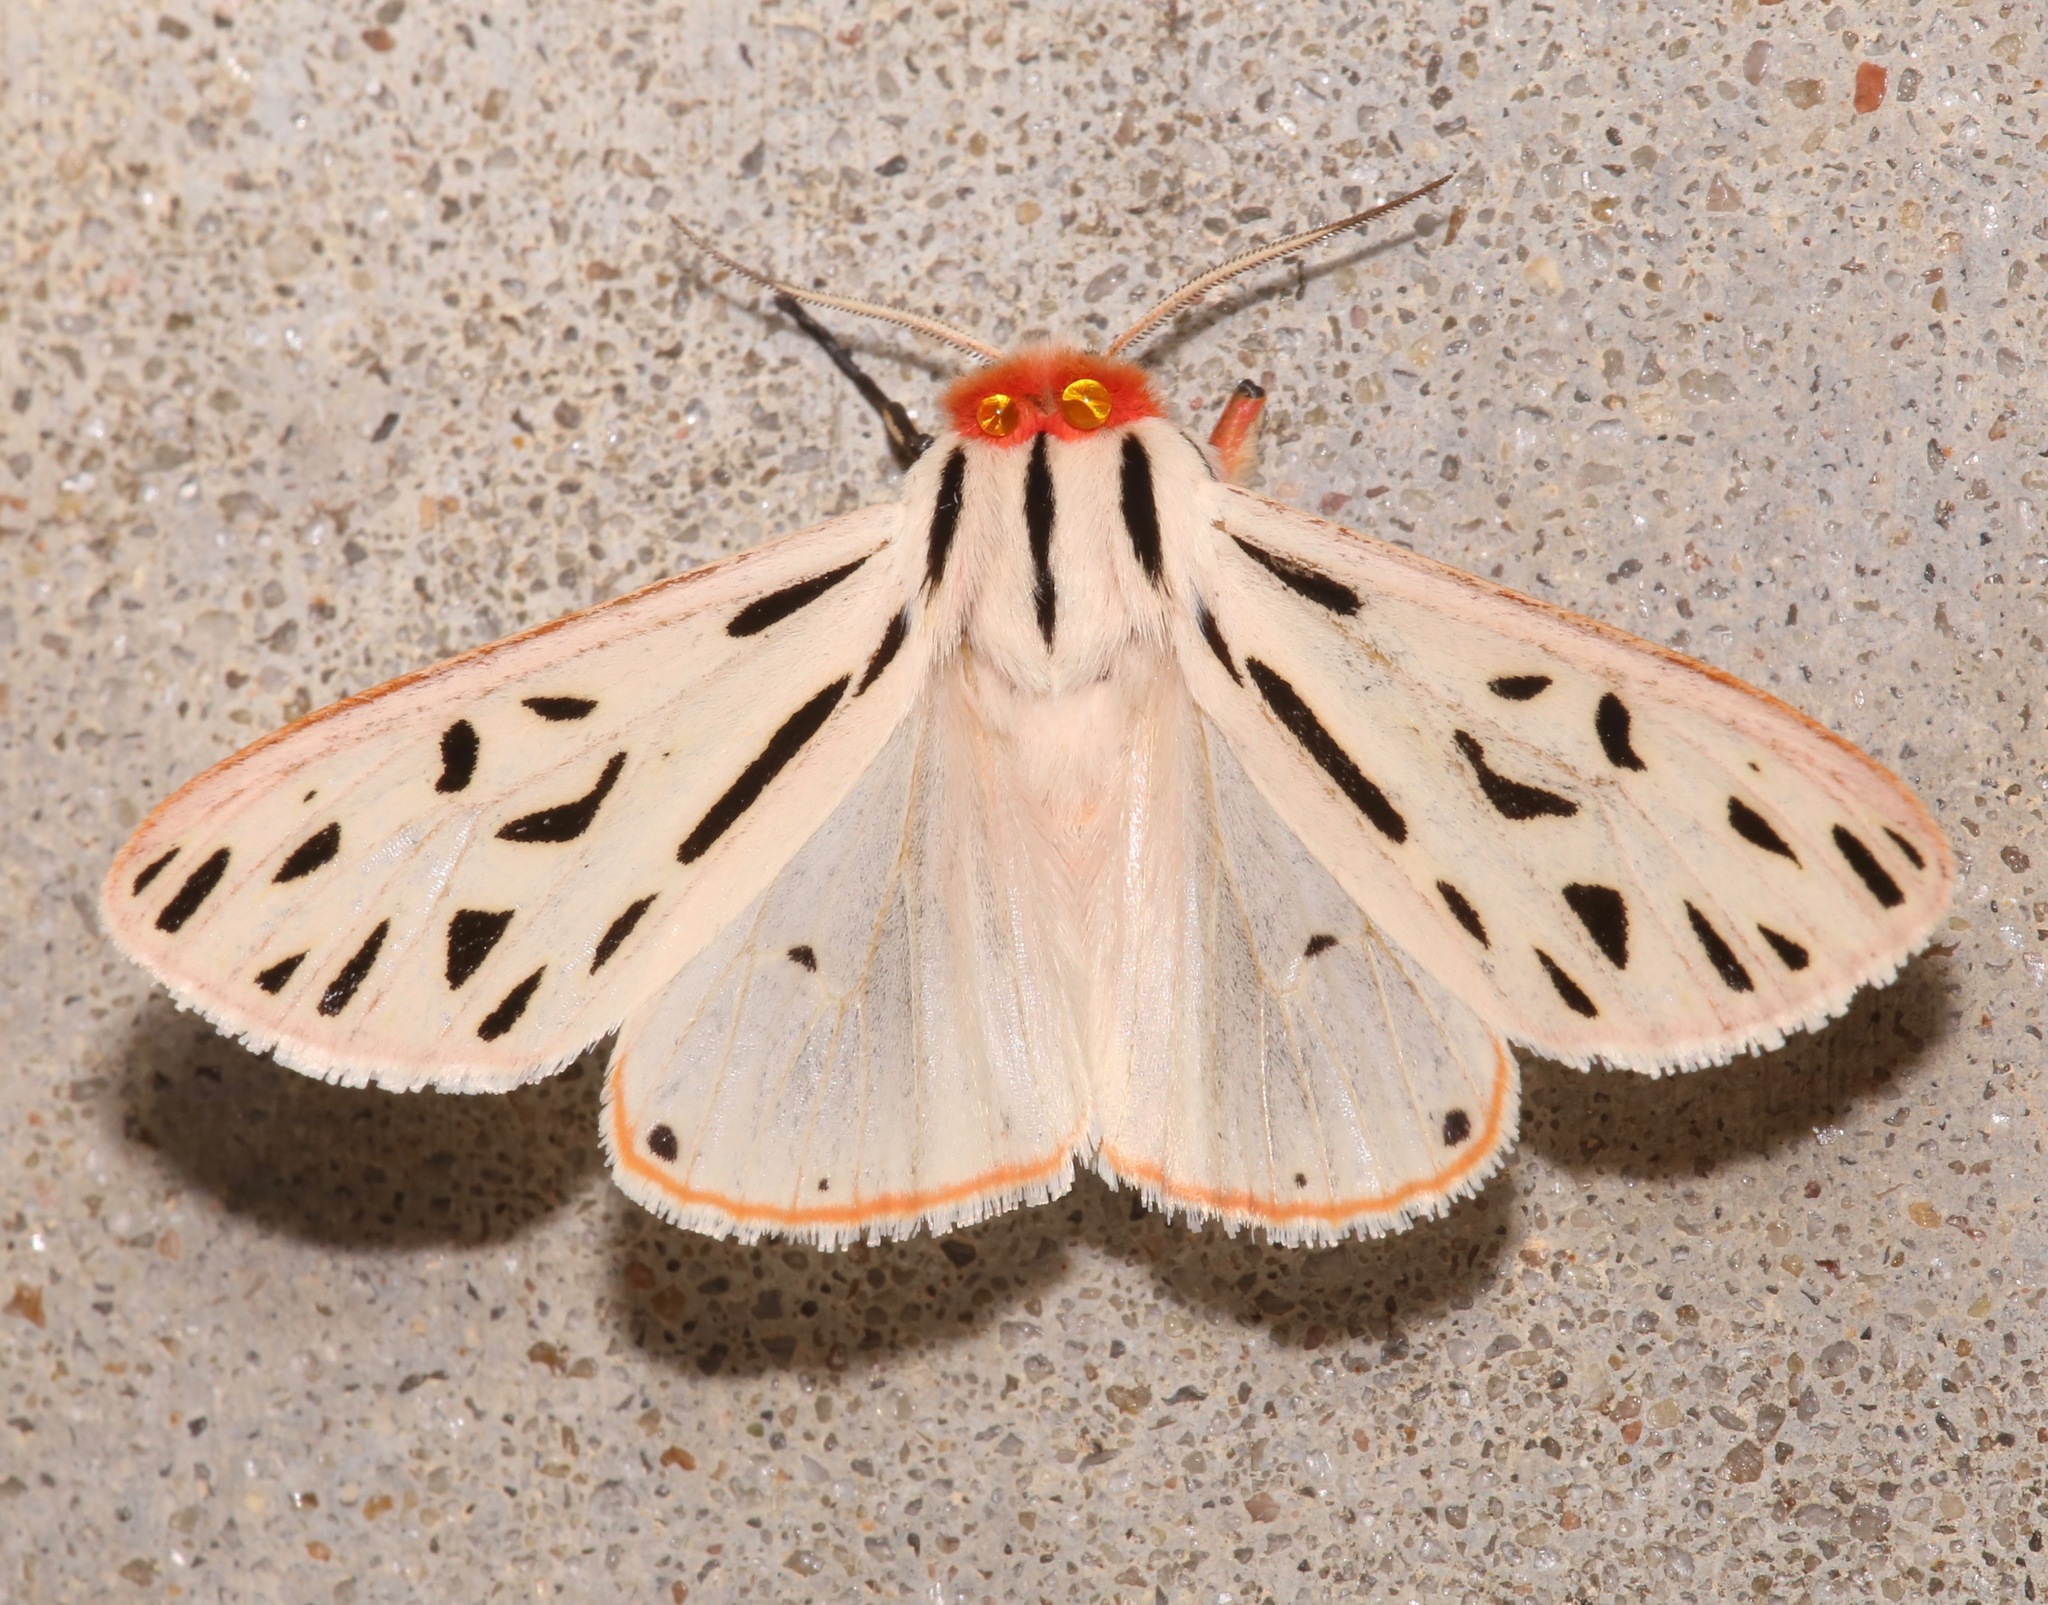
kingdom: Animalia
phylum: Arthropoda
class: Insecta
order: Lepidoptera
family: Erebidae
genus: Apantesis
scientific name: Apantesis arge
